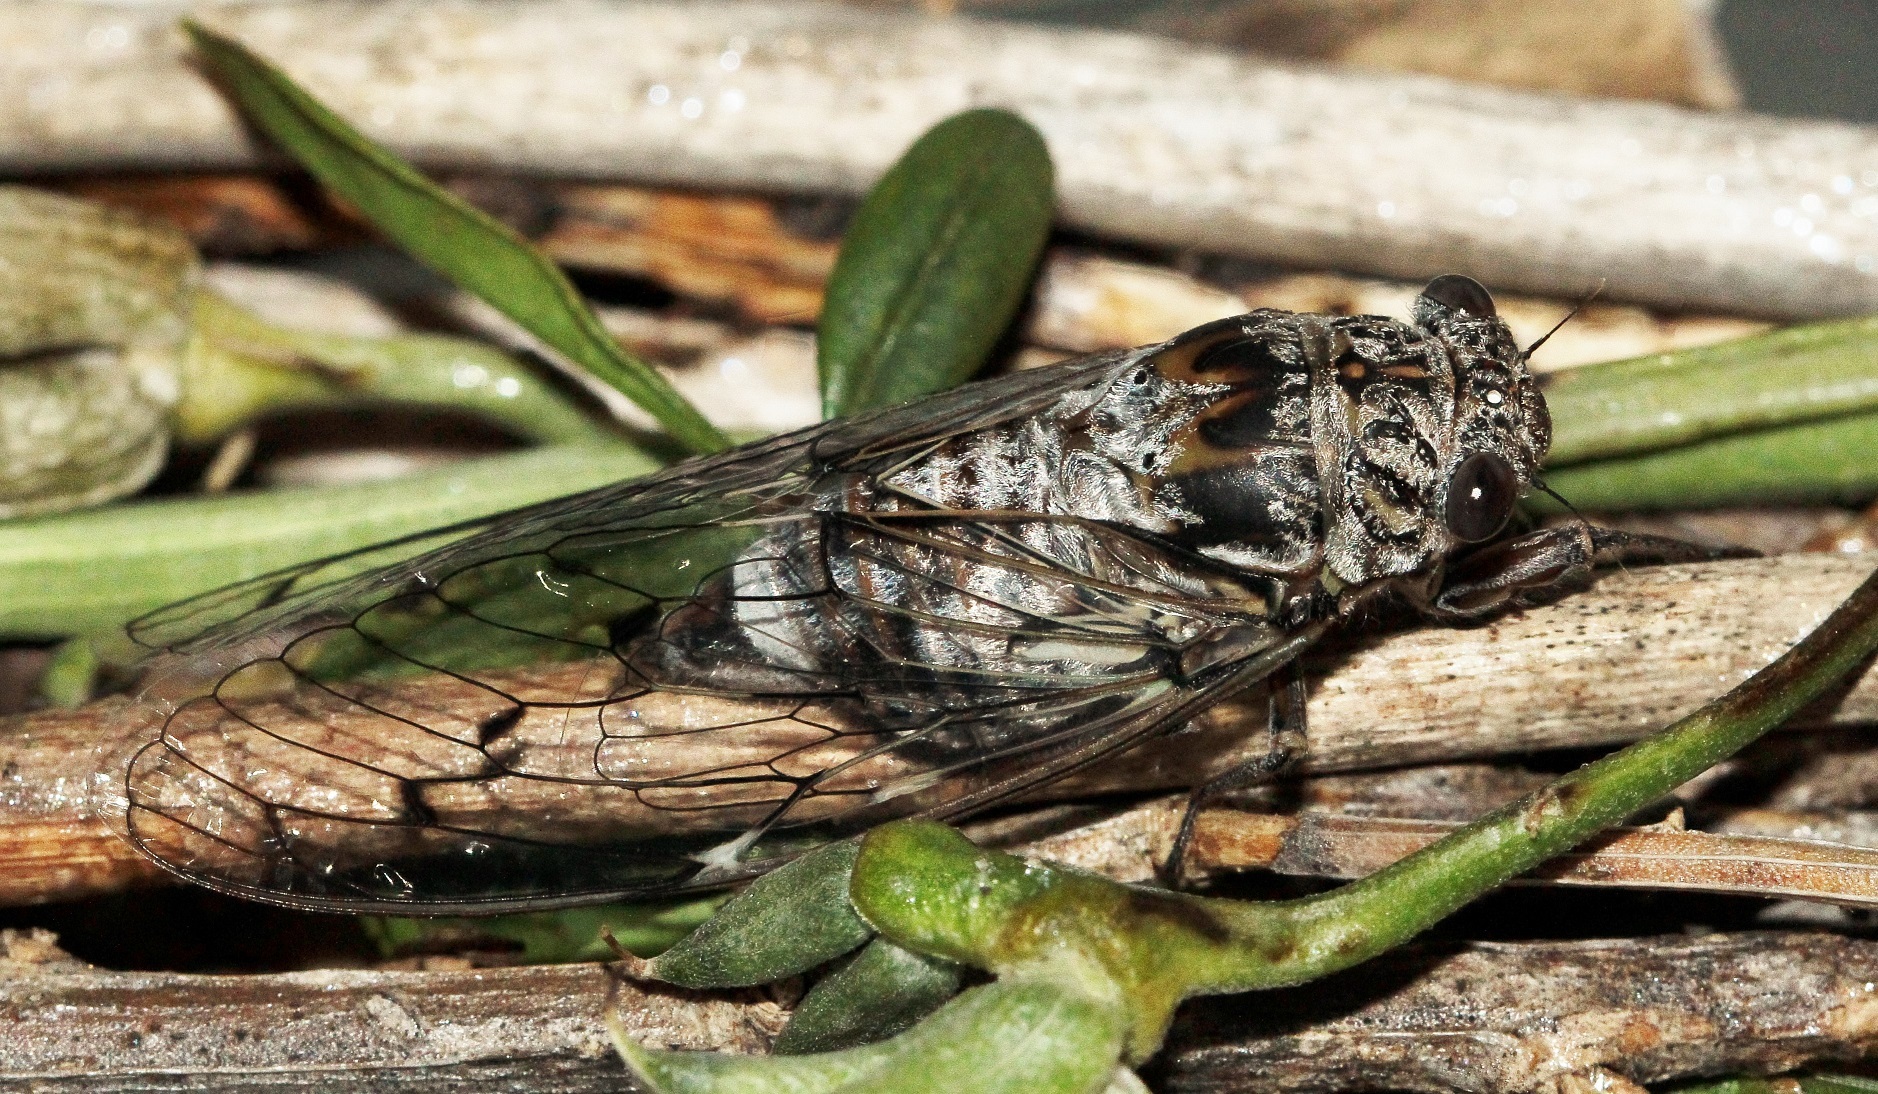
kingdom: Animalia
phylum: Arthropoda
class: Insecta
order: Hemiptera
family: Cicadidae
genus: Cicada
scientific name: Cicada orni
